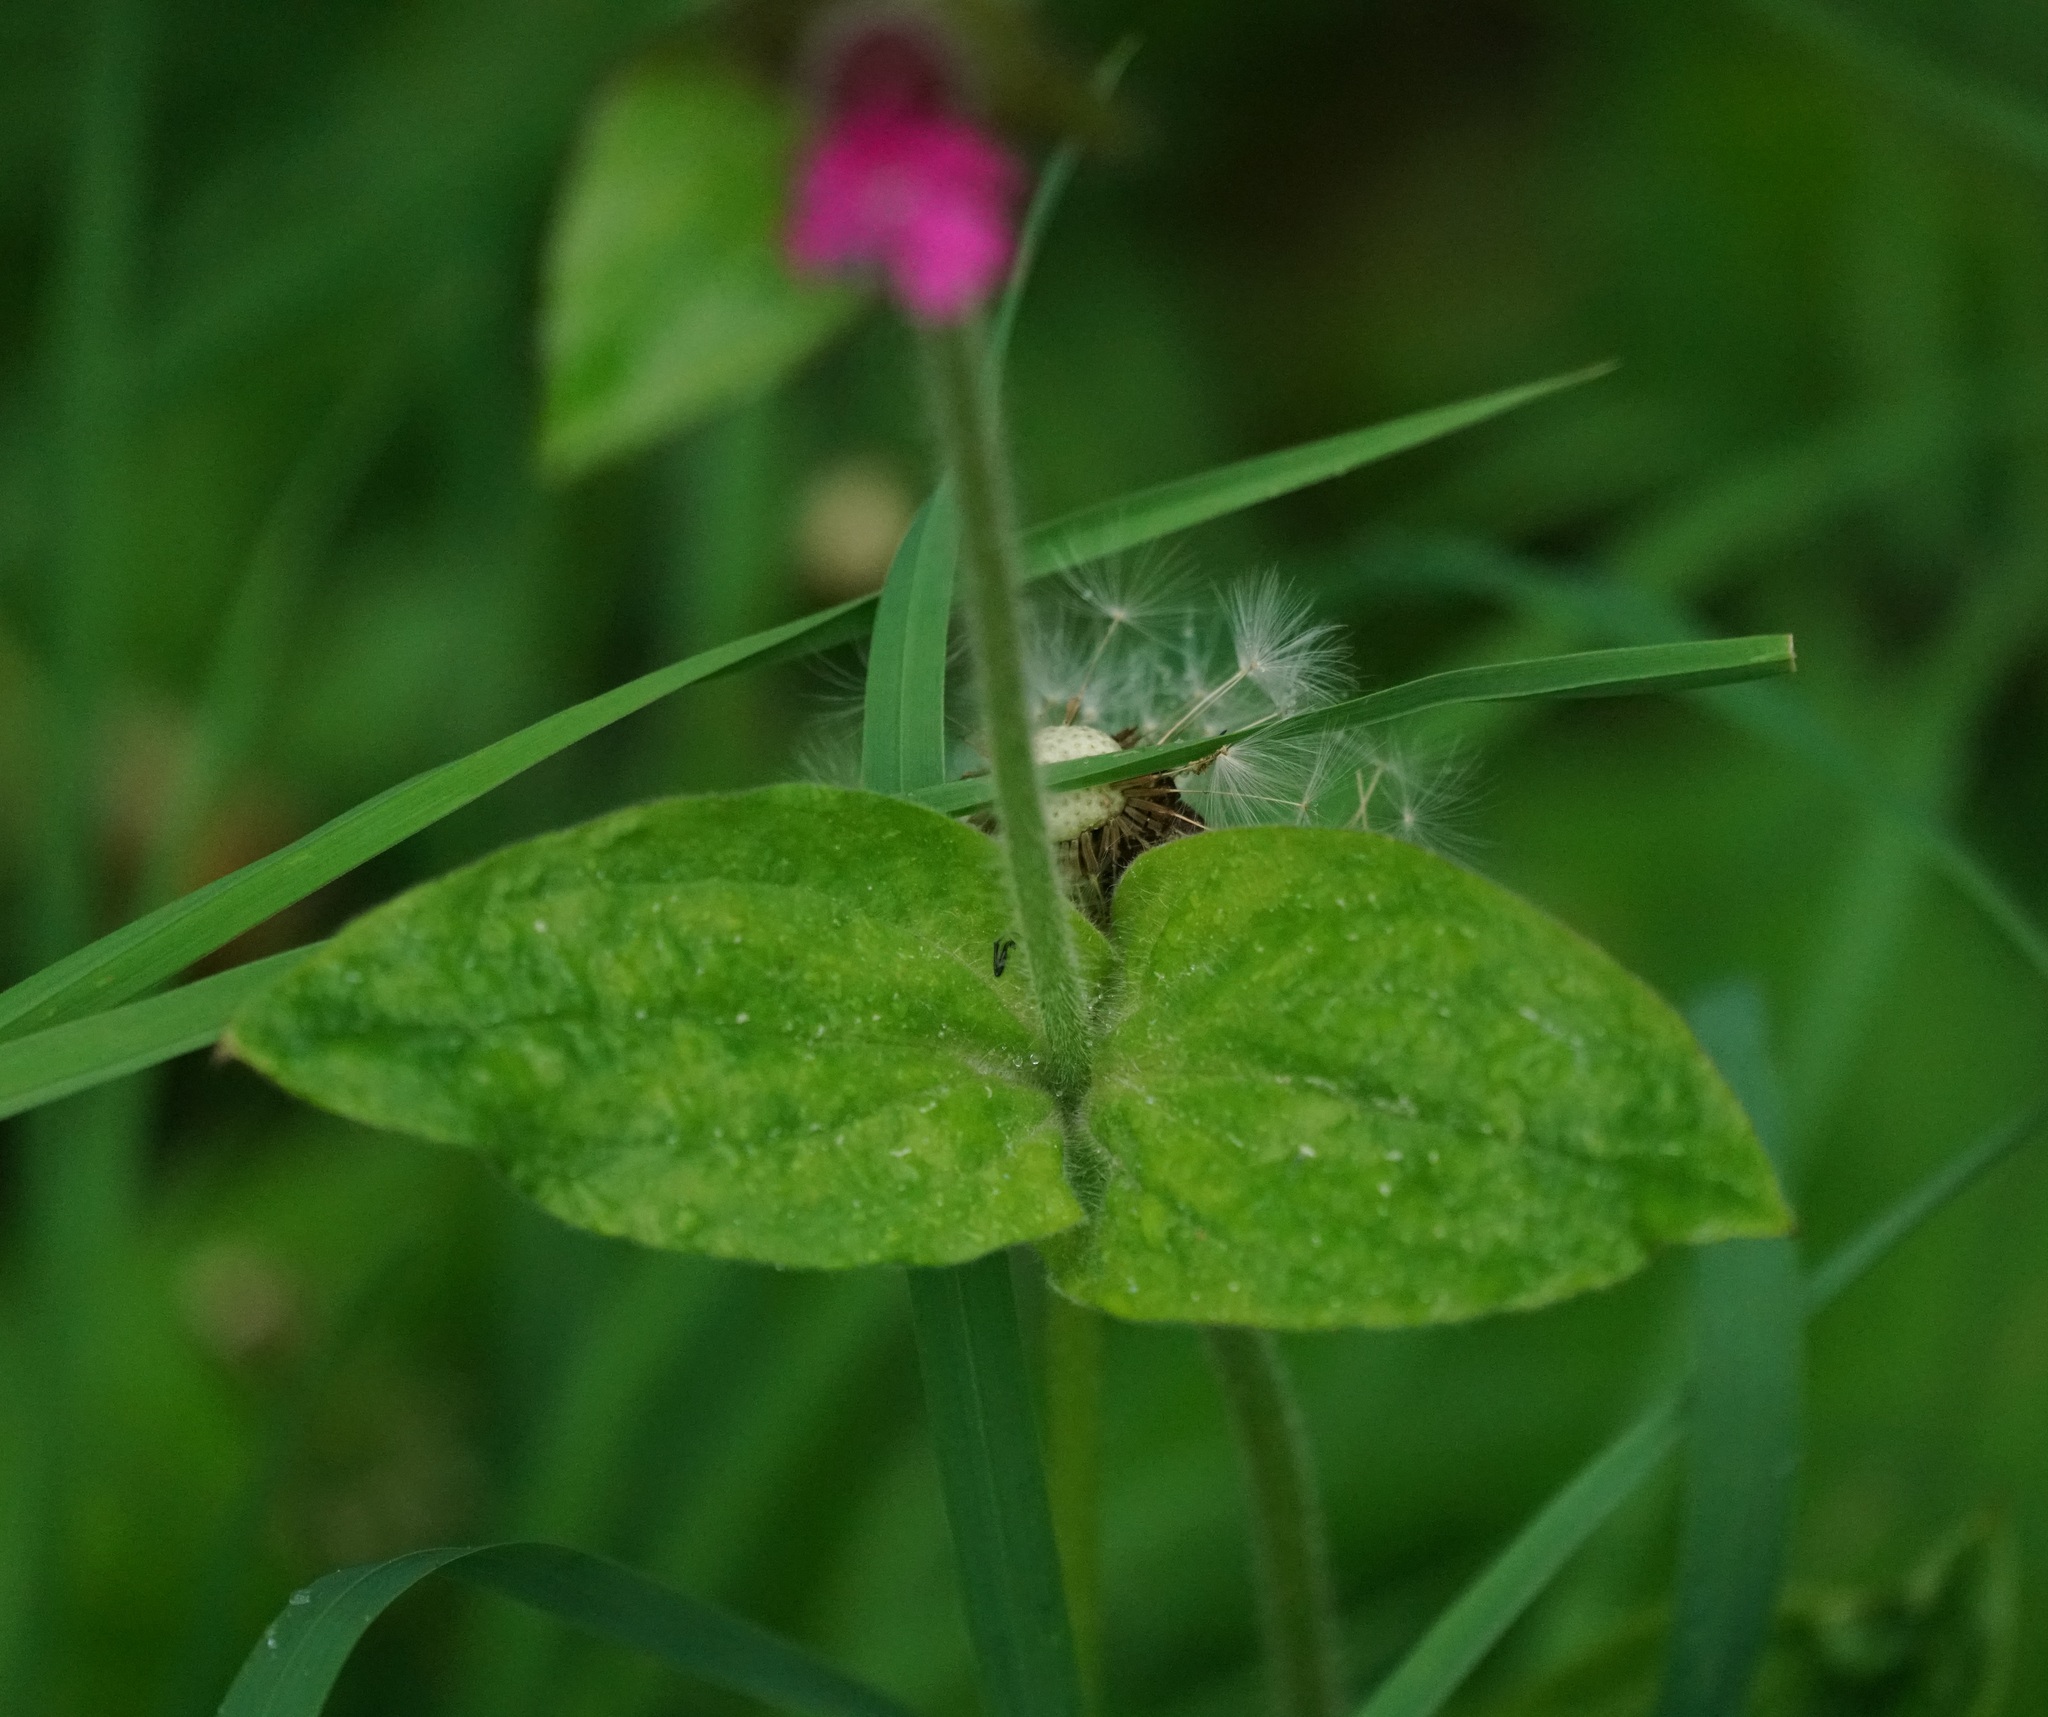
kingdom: Plantae
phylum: Tracheophyta
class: Magnoliopsida
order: Caryophyllales
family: Caryophyllaceae
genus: Silene
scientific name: Silene dioica
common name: Red campion
